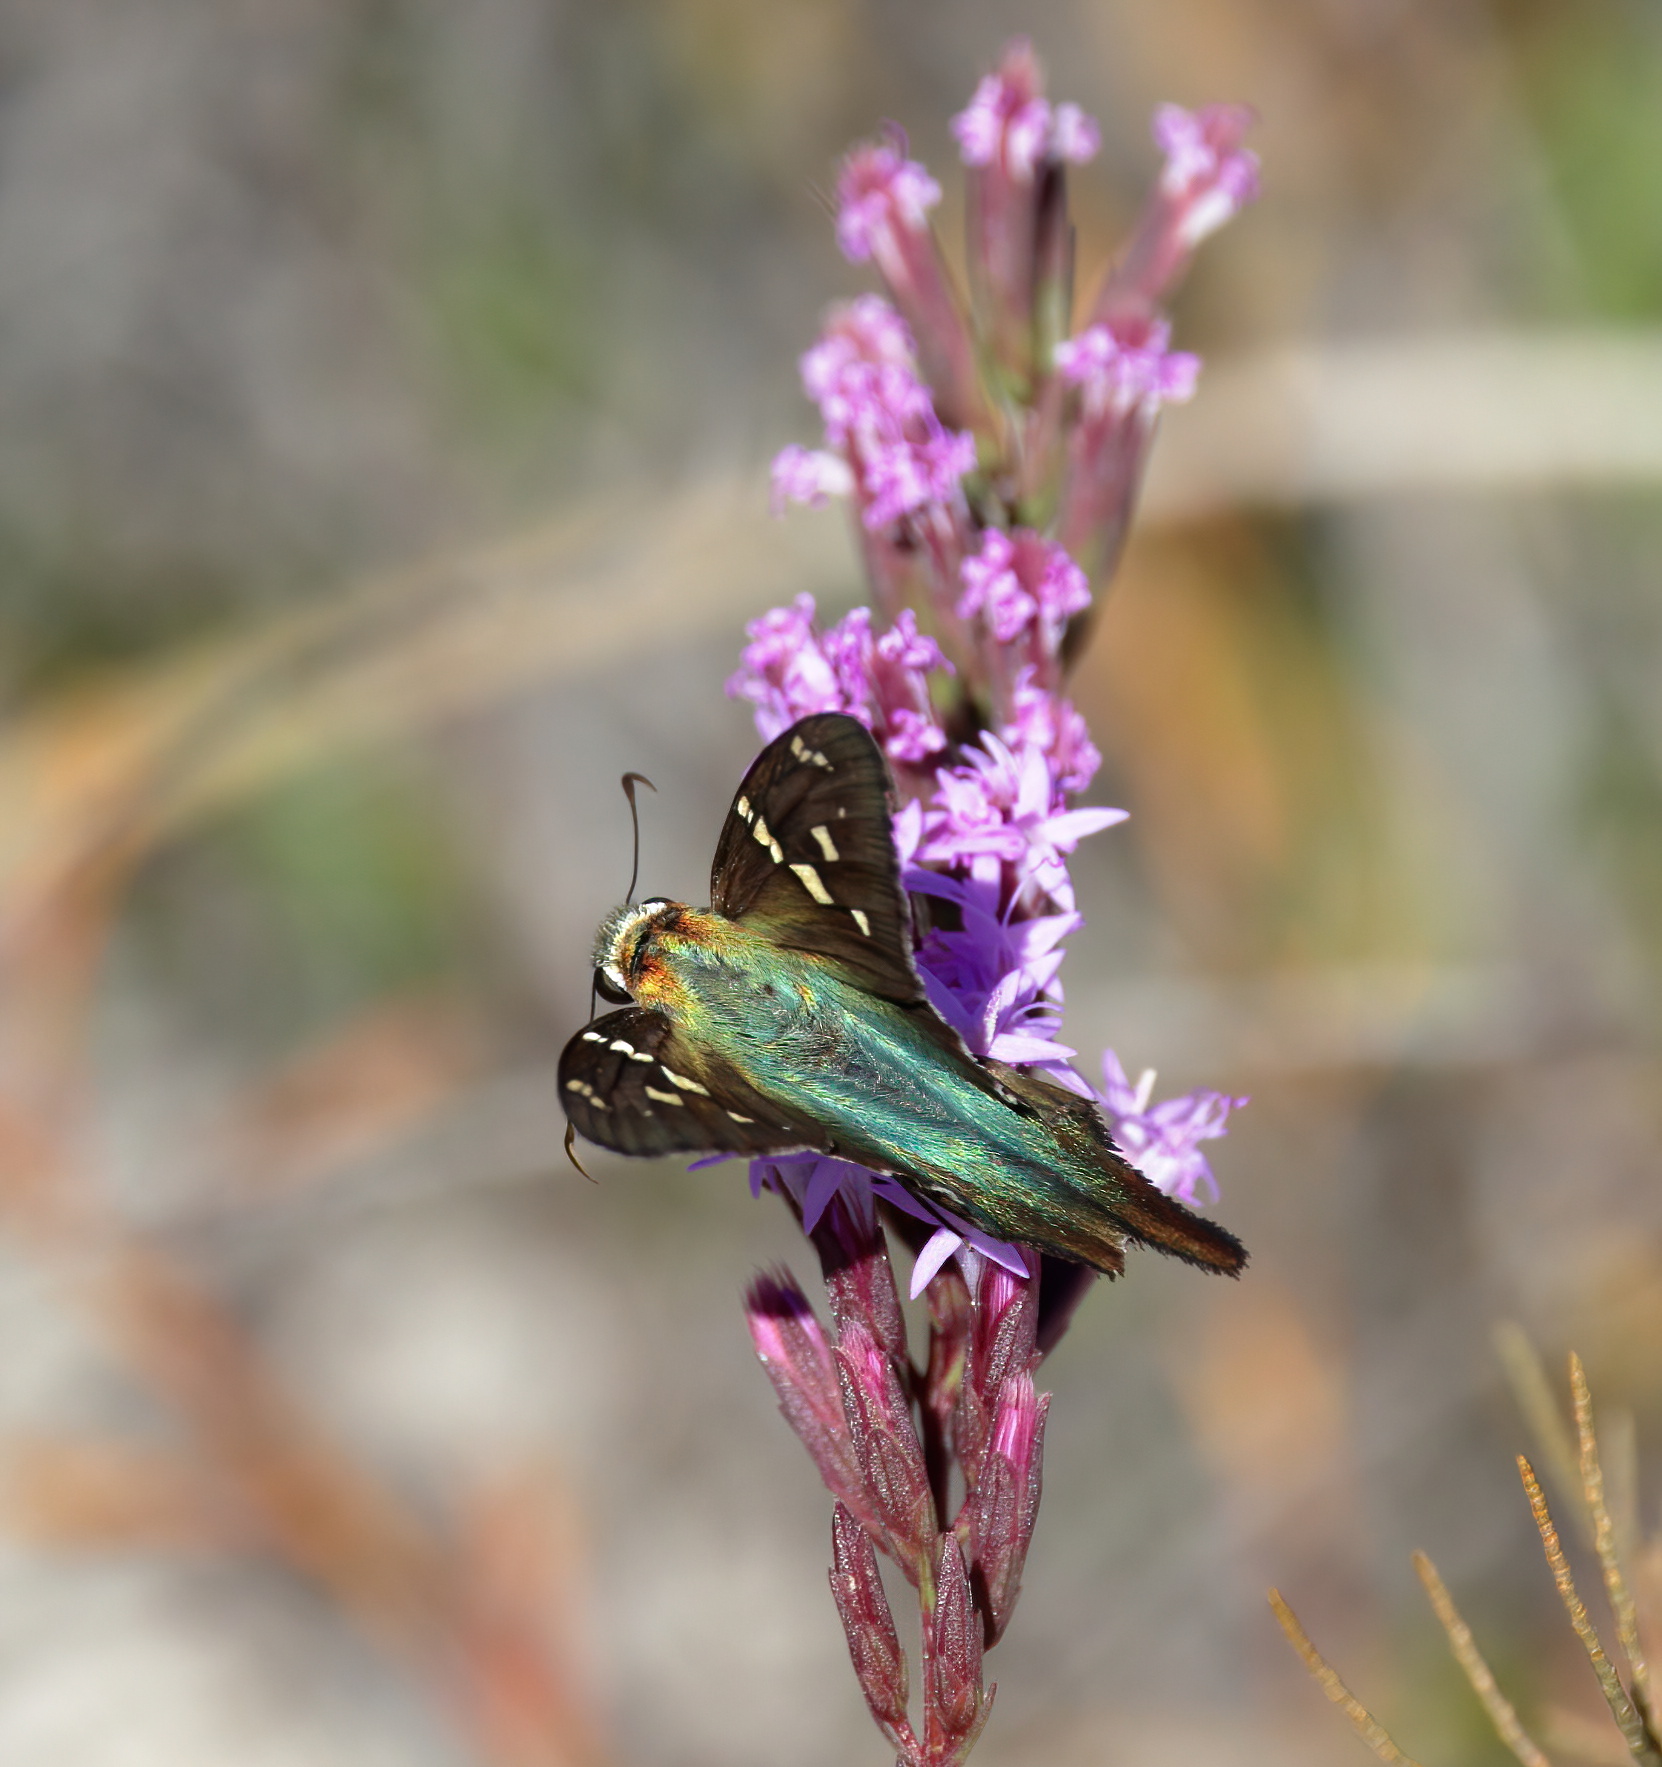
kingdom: Animalia
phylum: Arthropoda
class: Insecta
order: Lepidoptera
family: Hesperiidae
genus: Urbanus
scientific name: Urbanus proteus
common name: Long-tailed skipper
